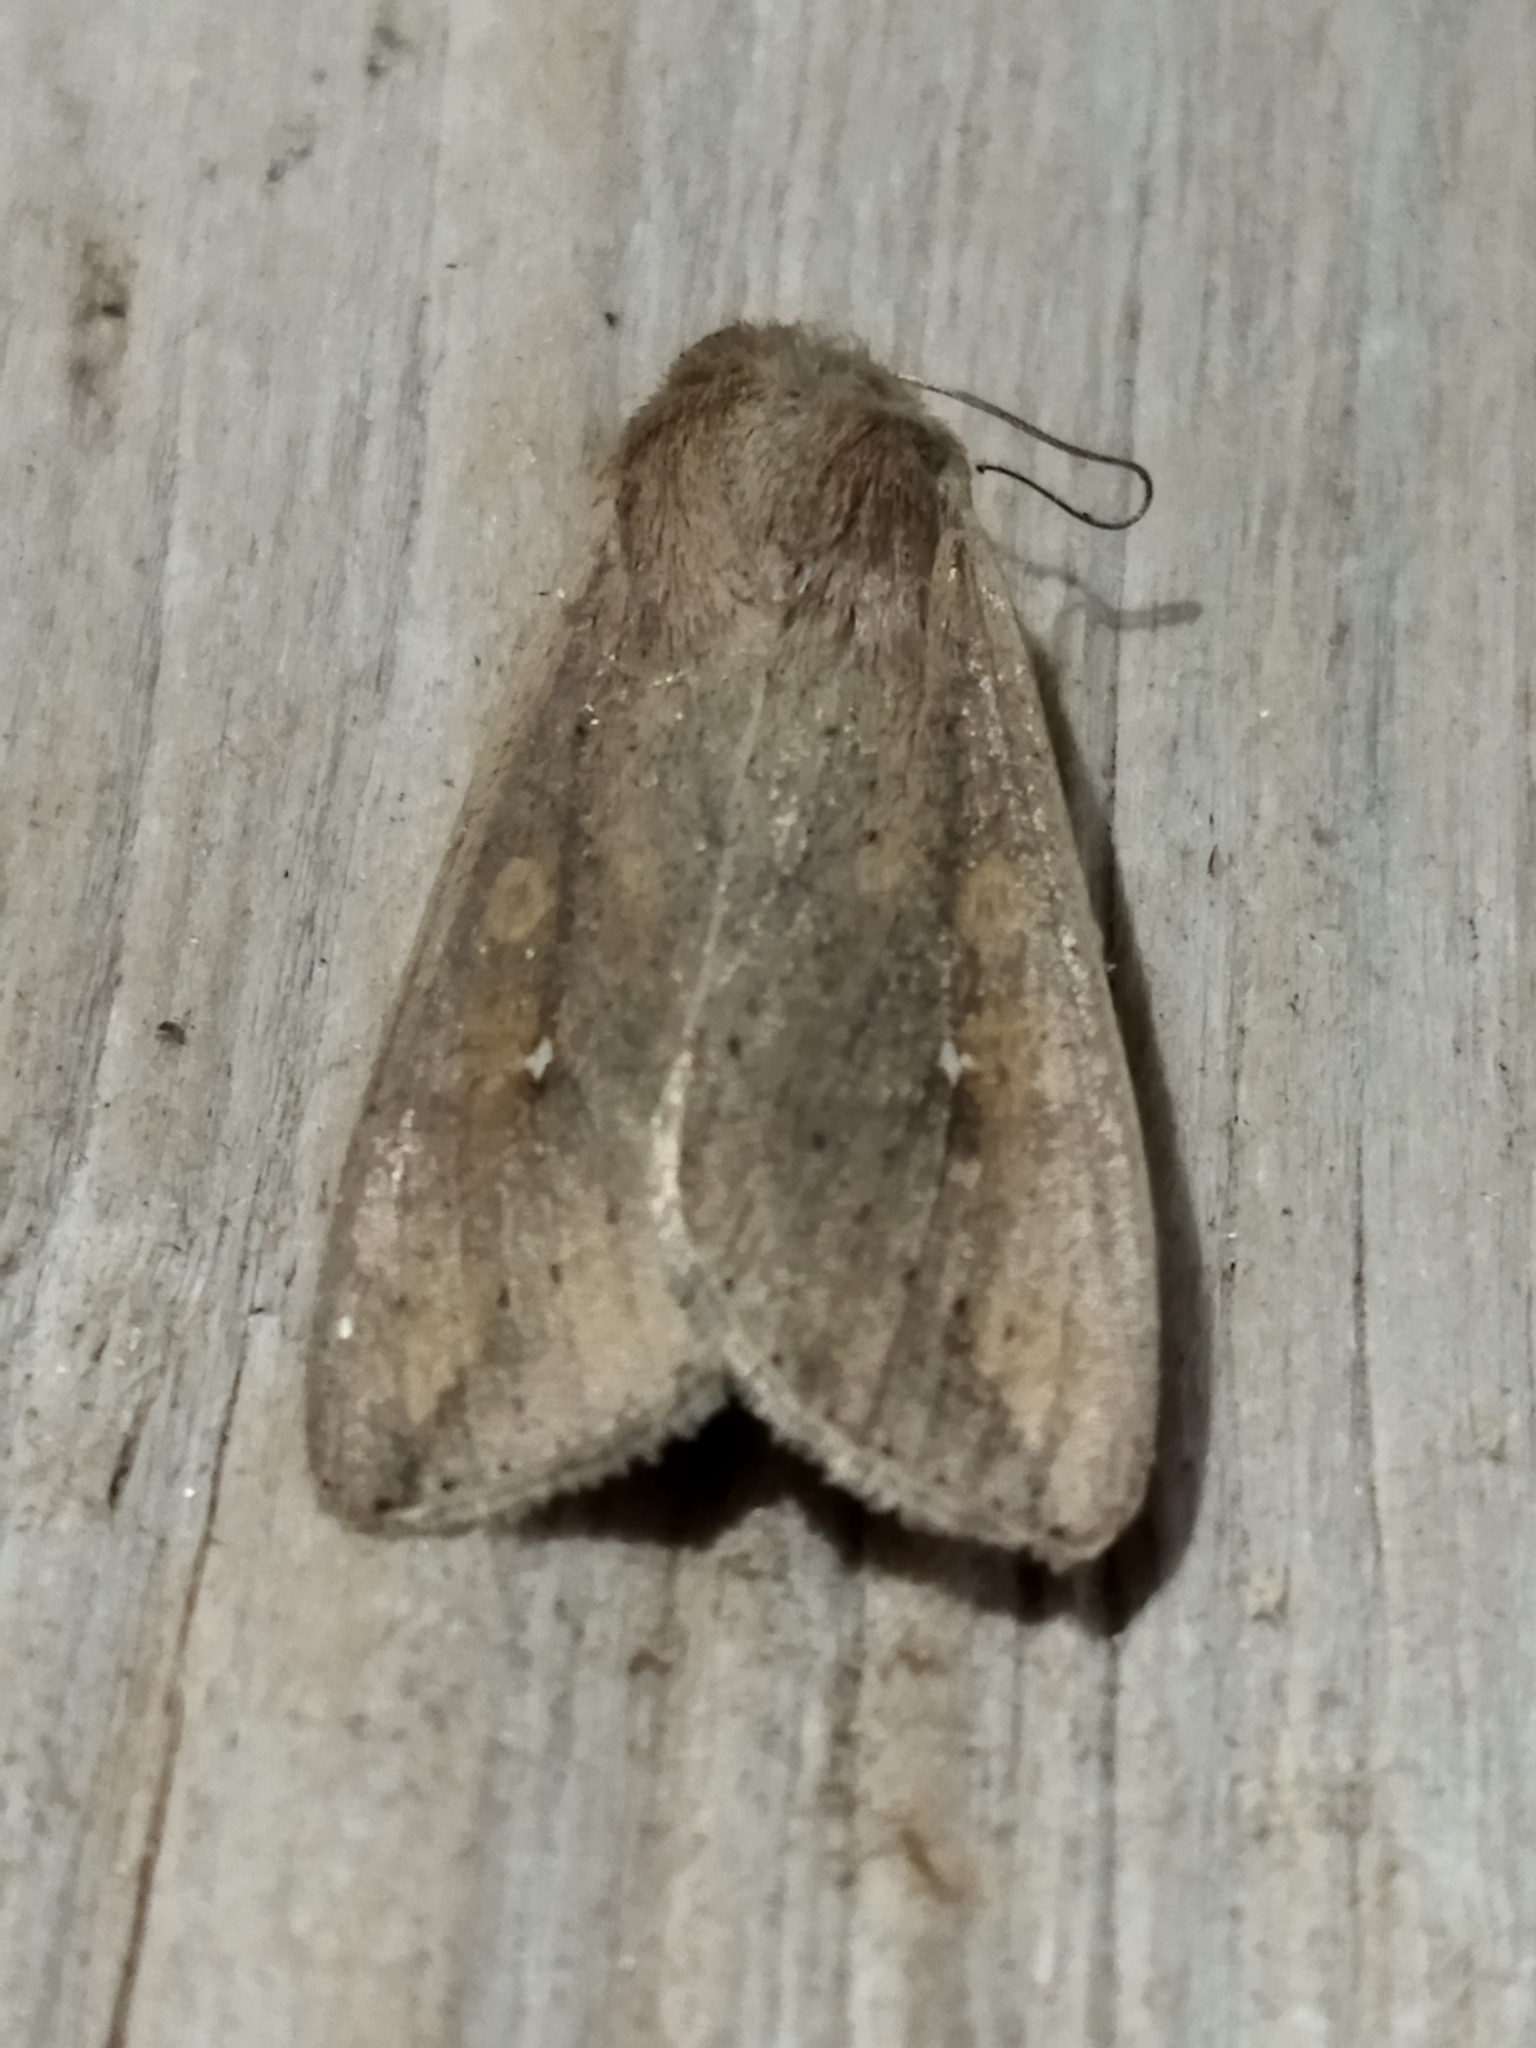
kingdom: Animalia
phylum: Arthropoda
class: Insecta
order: Lepidoptera
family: Noctuidae
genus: Mythimna
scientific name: Mythimna unipuncta
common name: White-speck
